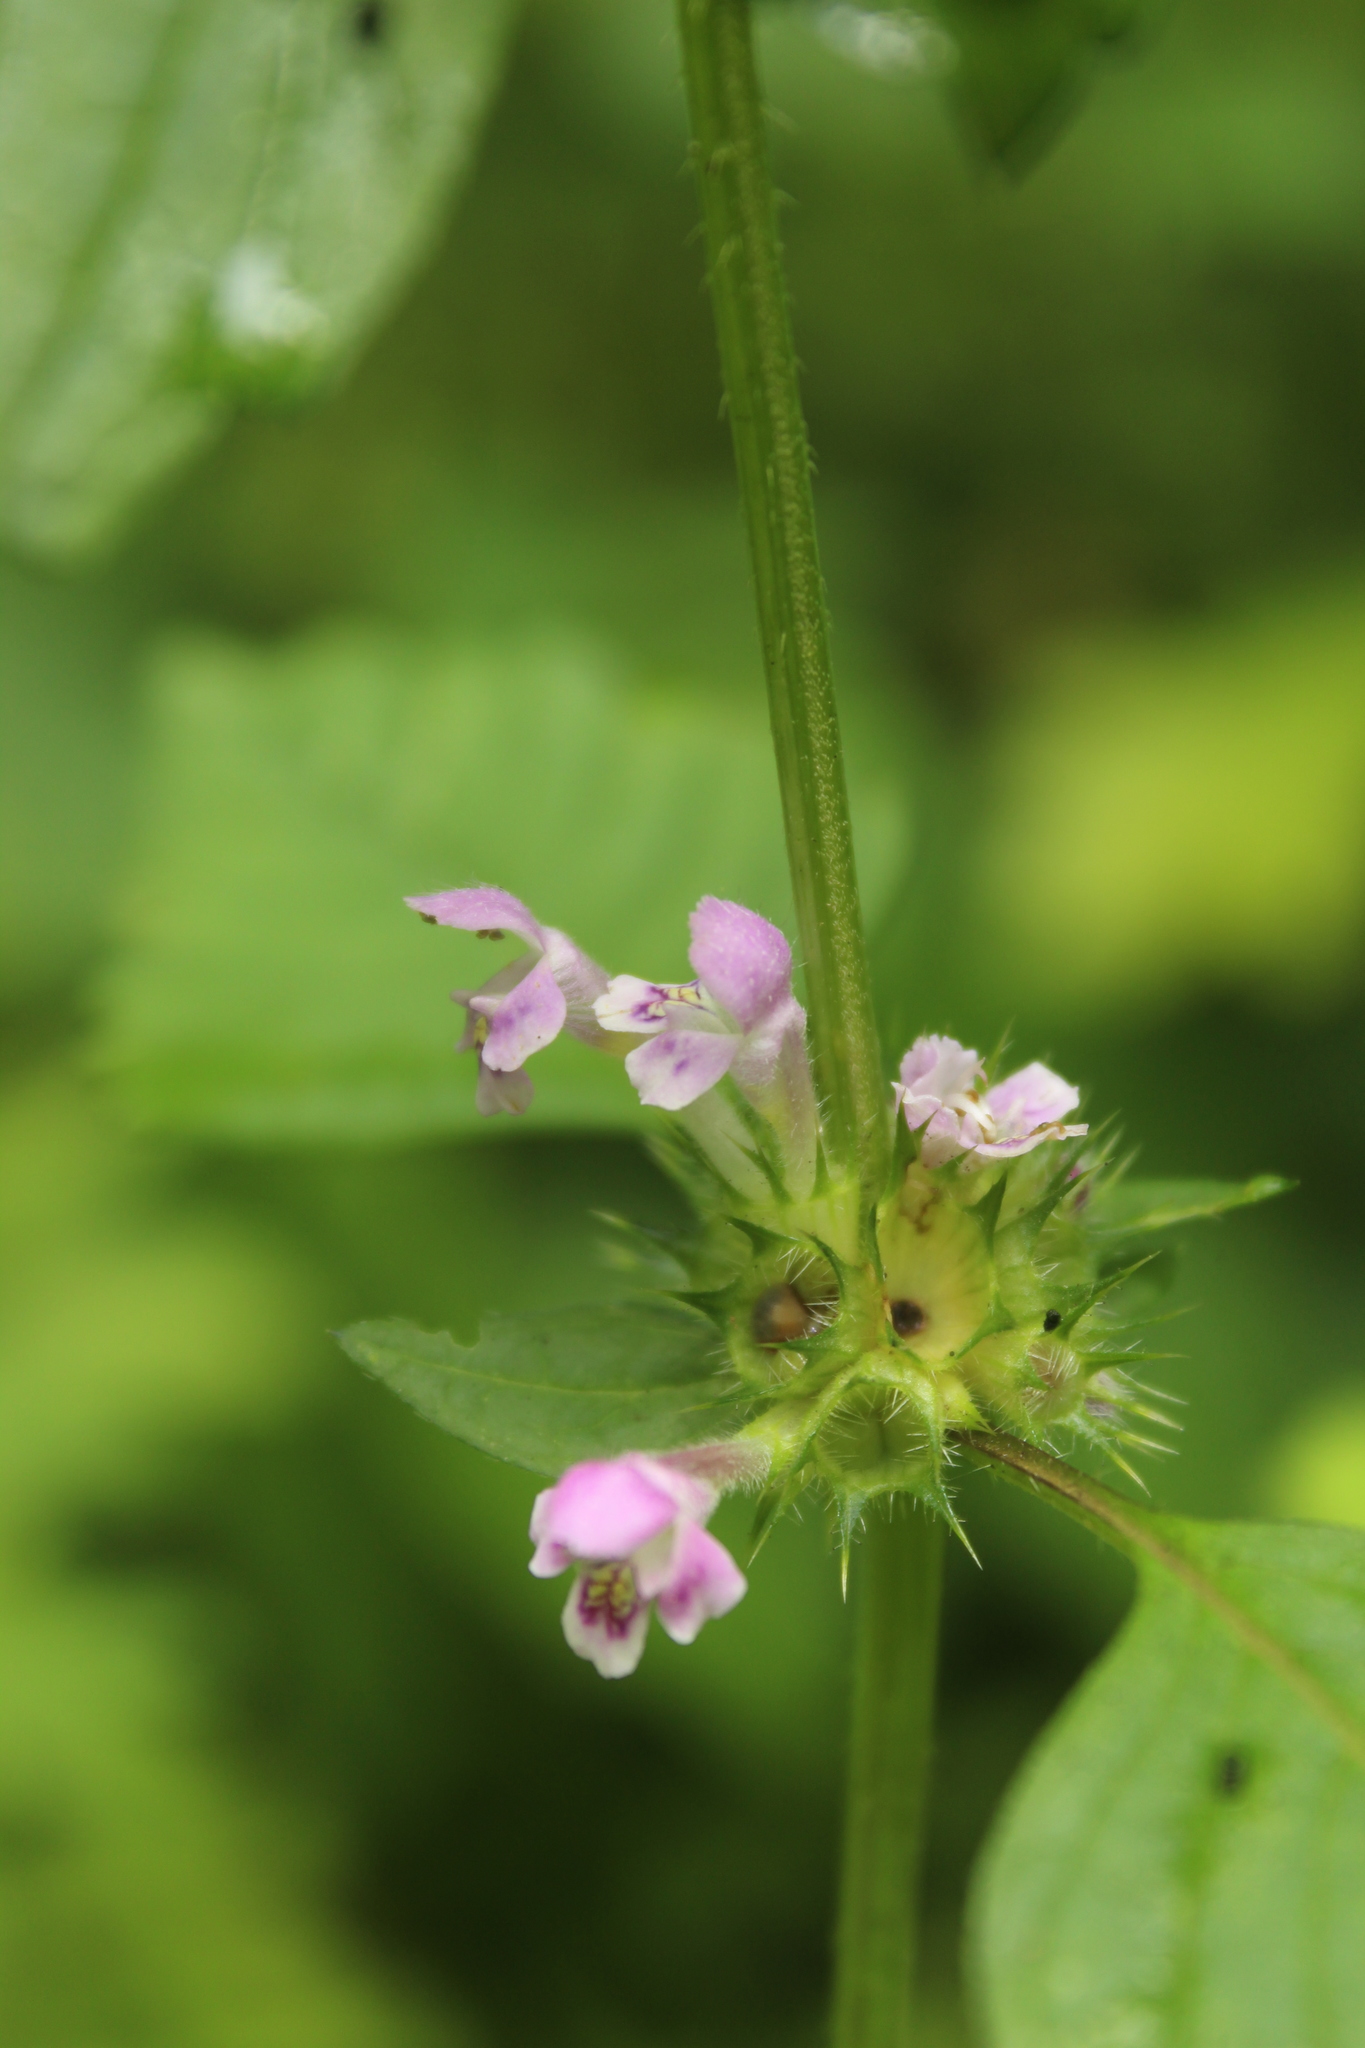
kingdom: Plantae
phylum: Tracheophyta
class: Magnoliopsida
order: Lamiales
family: Lamiaceae
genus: Galeopsis
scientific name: Galeopsis bifida
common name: Bifid hemp-nettle
